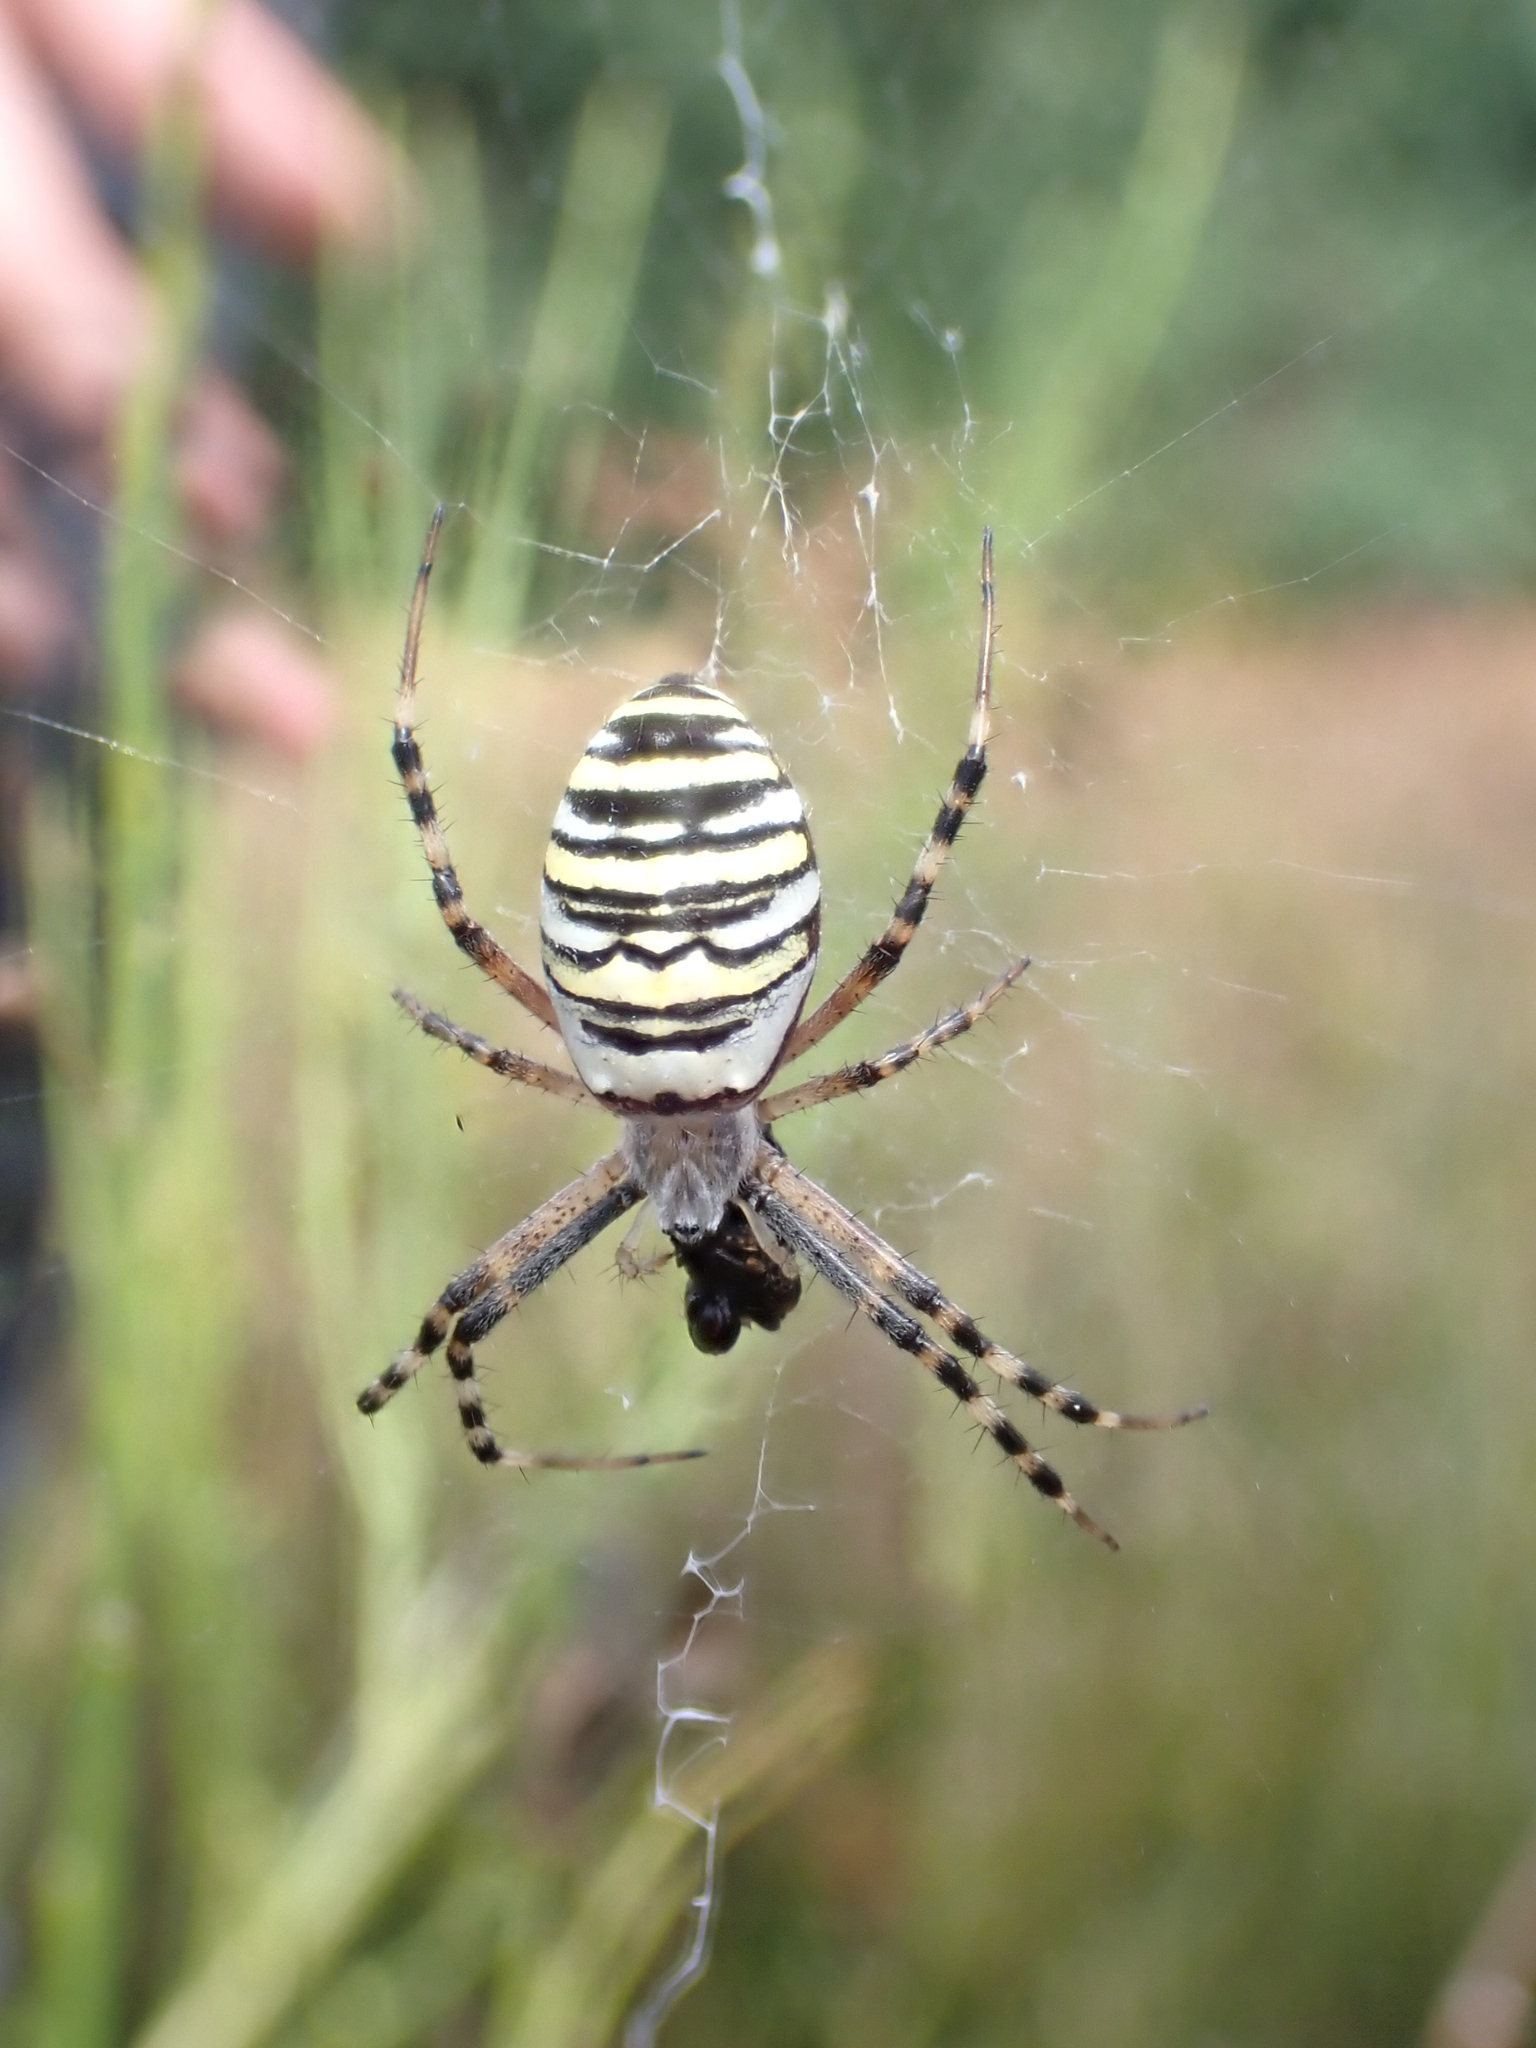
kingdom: Animalia
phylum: Arthropoda
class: Arachnida
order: Araneae
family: Araneidae
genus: Argiope
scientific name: Argiope bruennichi
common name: Wasp spider
